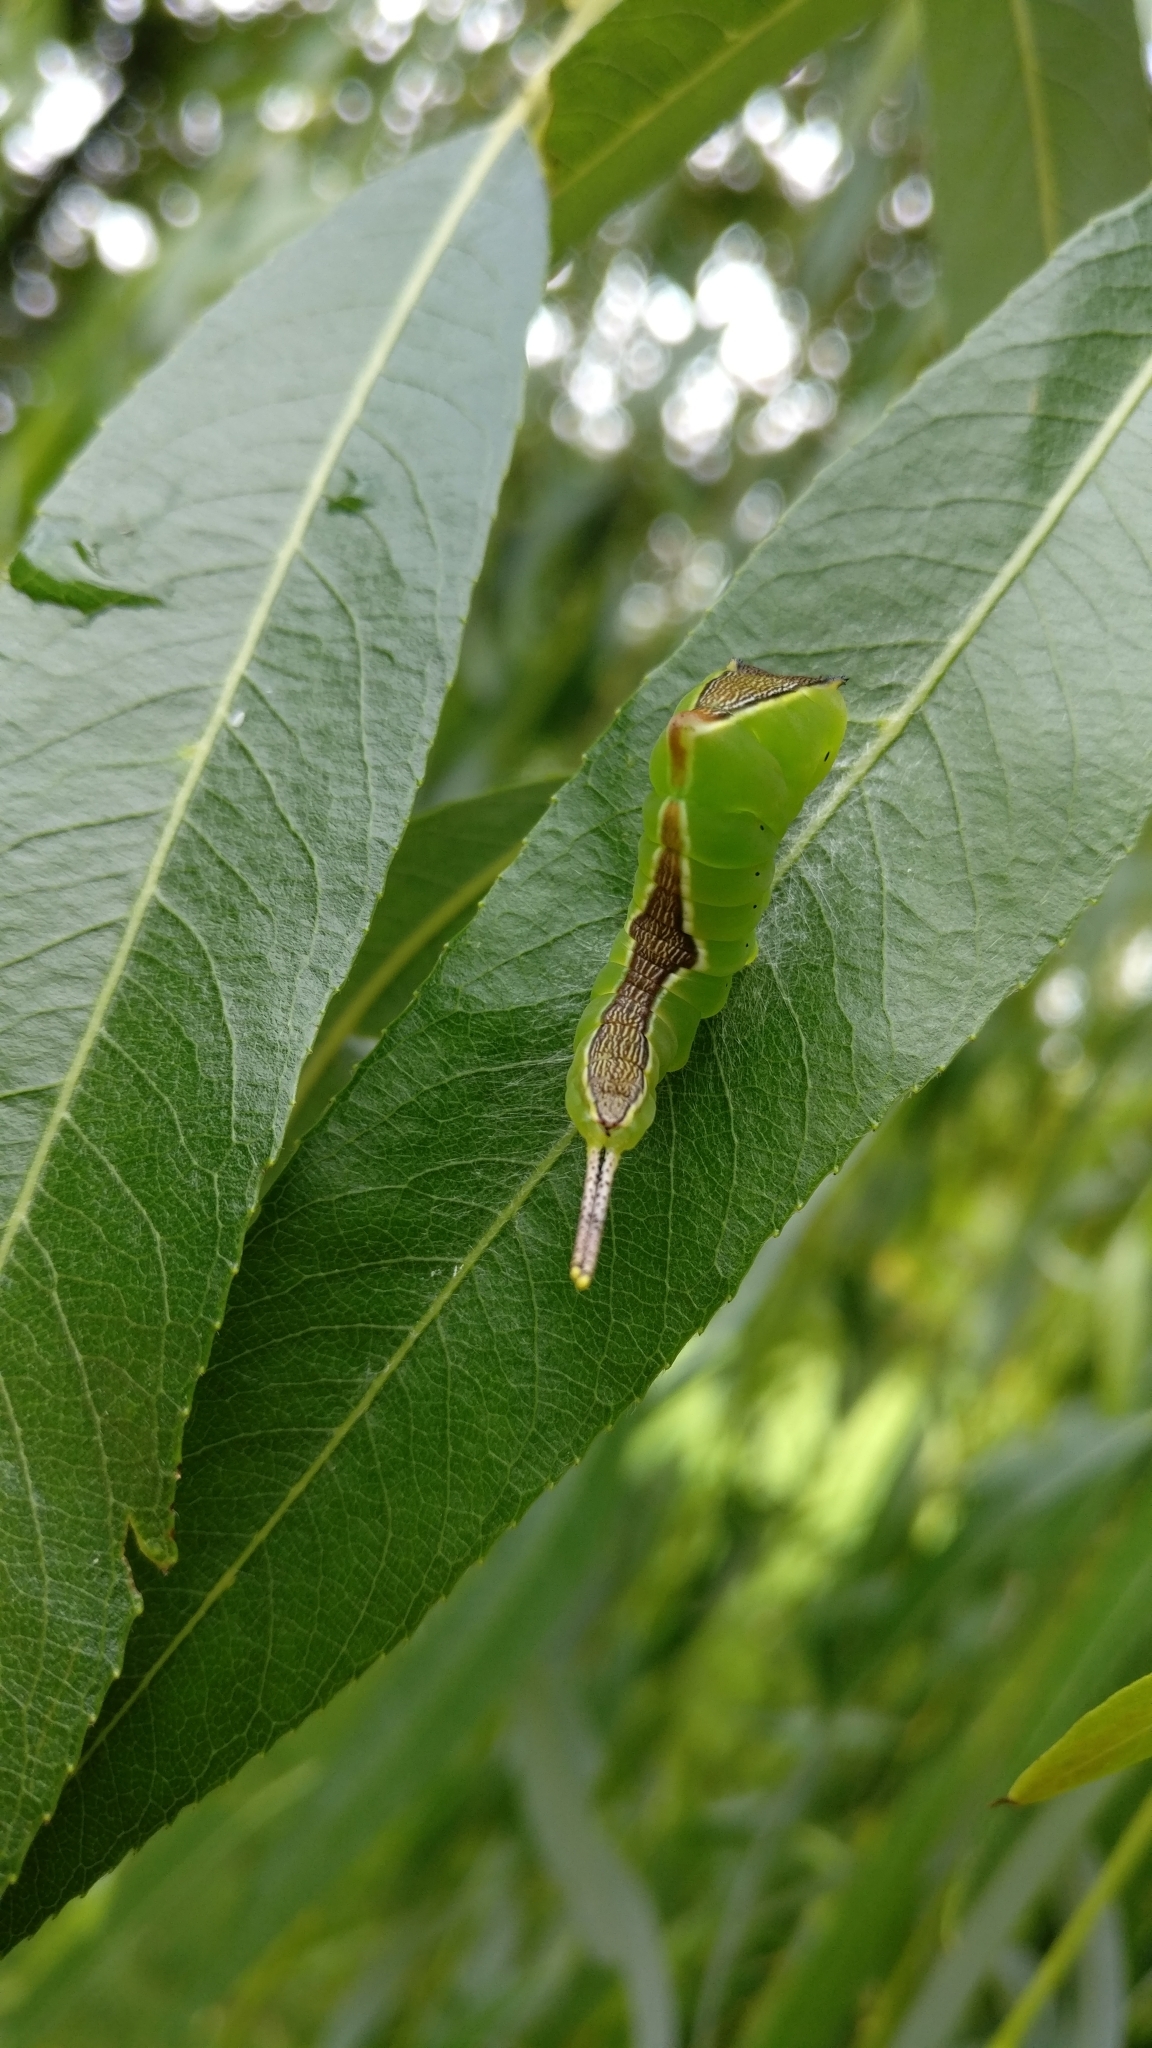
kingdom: Animalia
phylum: Arthropoda
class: Insecta
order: Lepidoptera
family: Notodontidae
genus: Cerura
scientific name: Cerura vinula
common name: Puss moth
